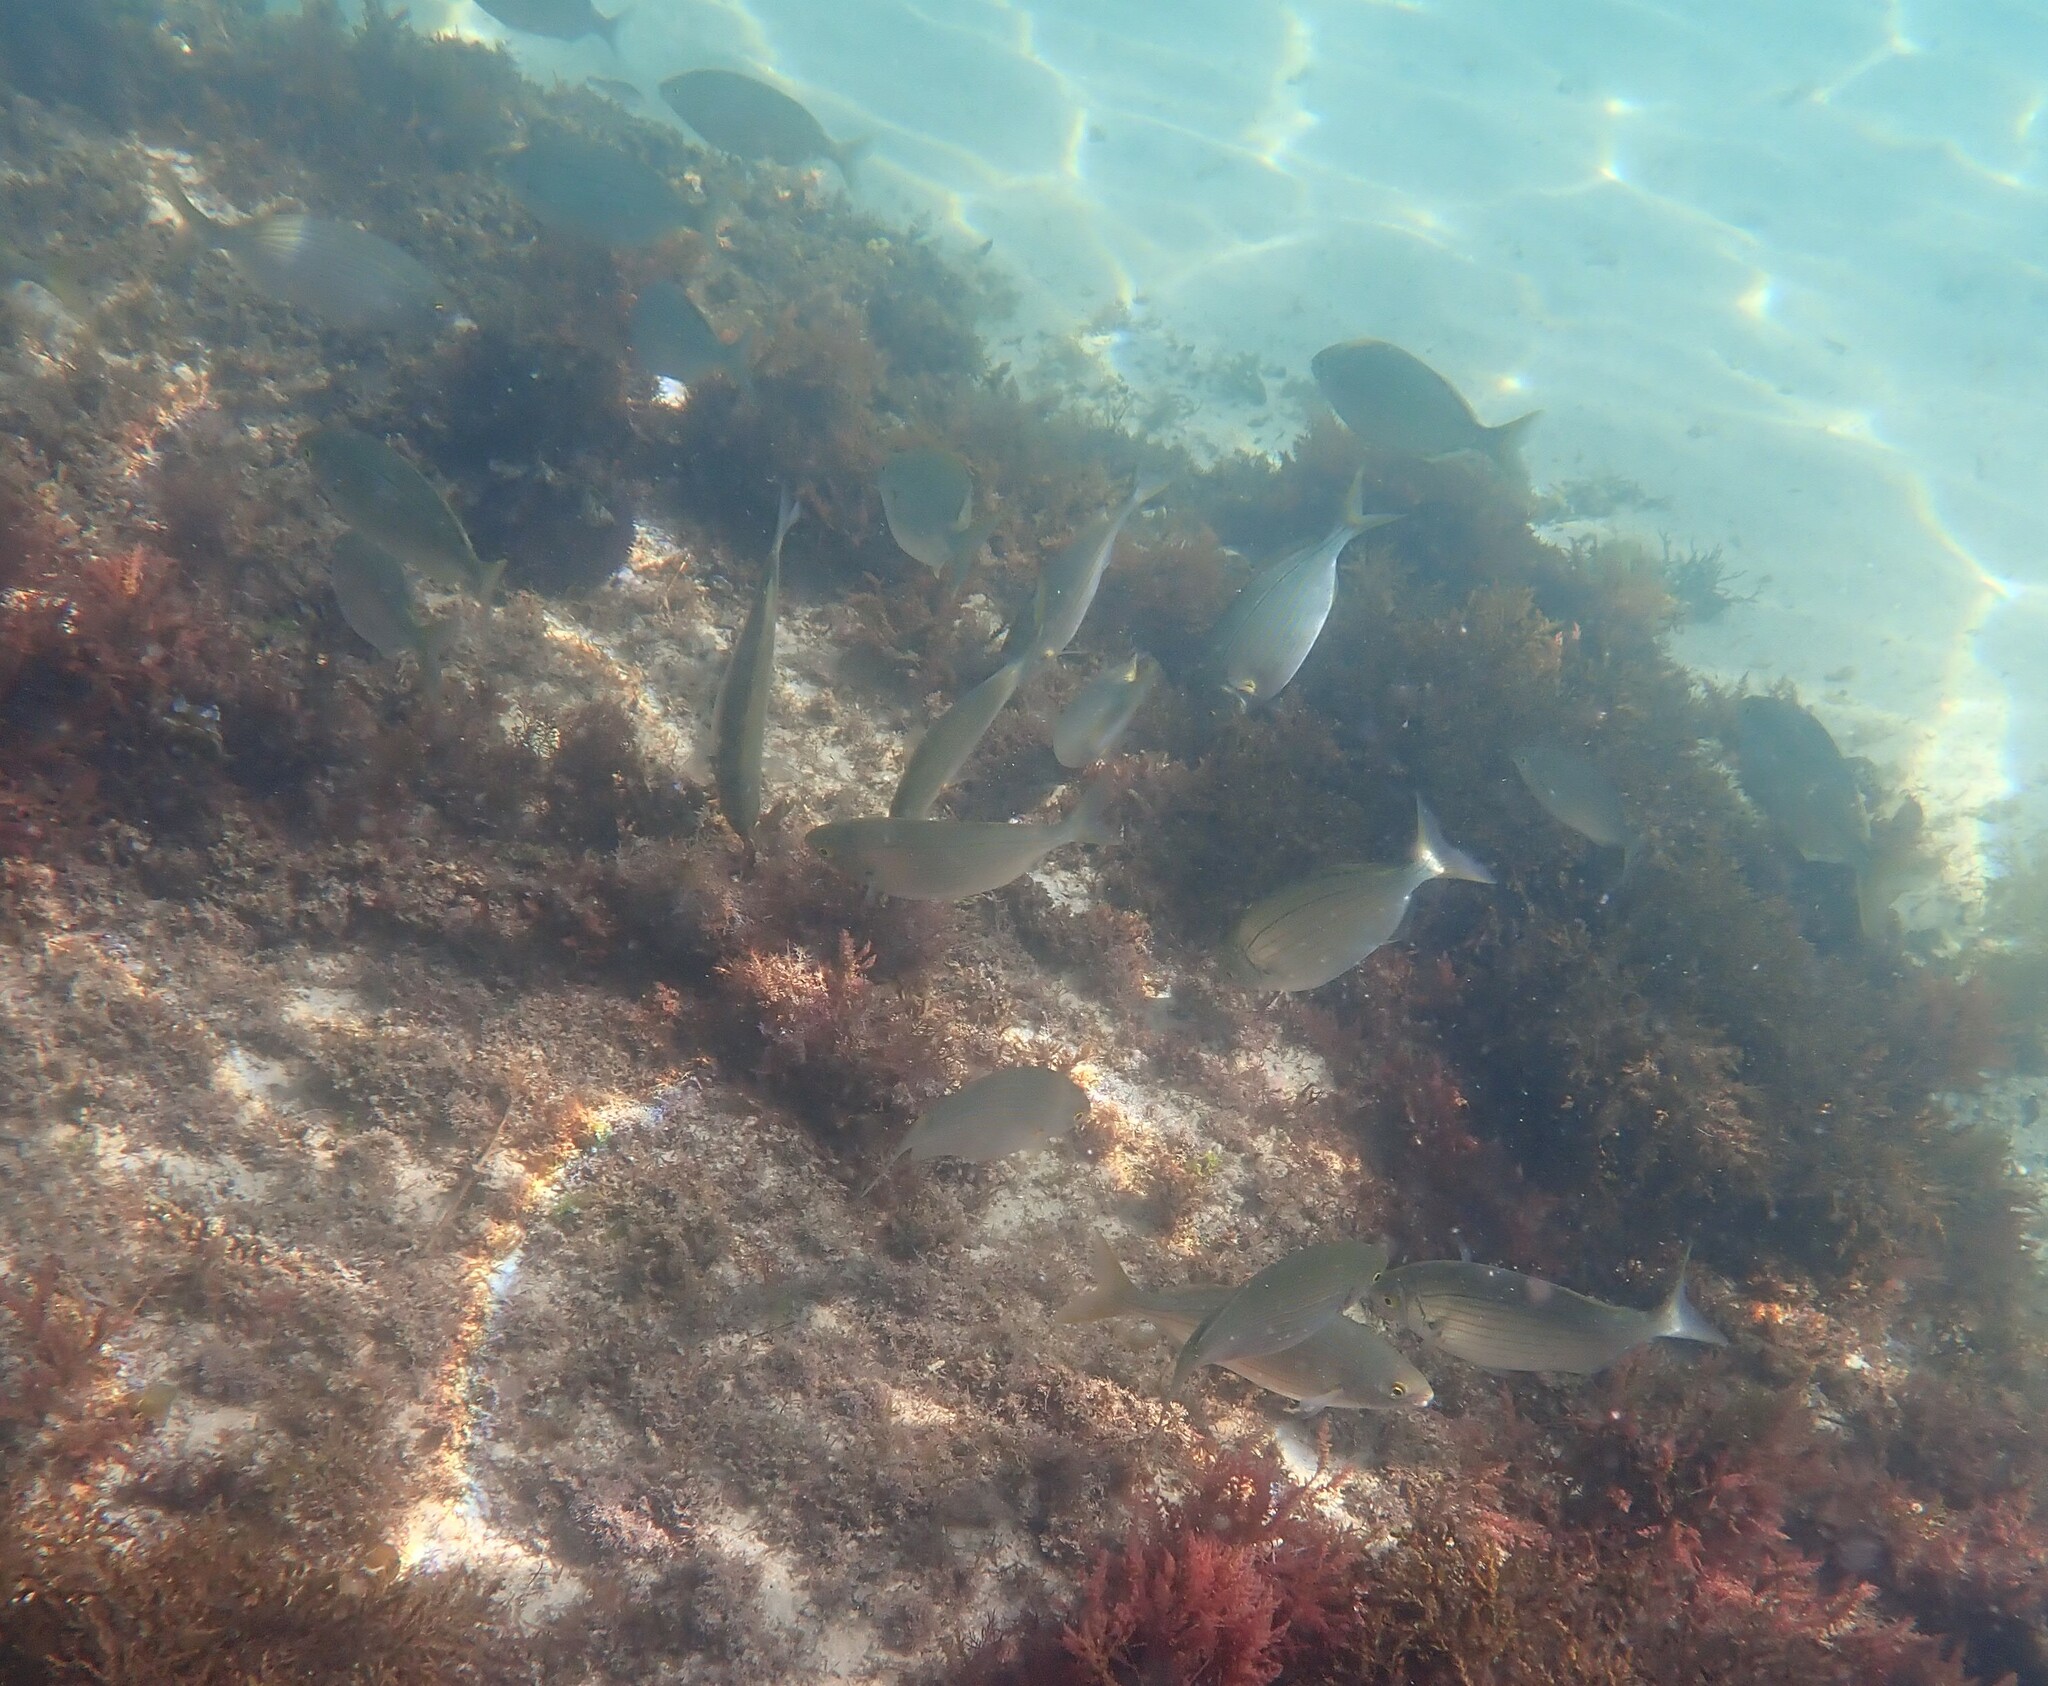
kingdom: Animalia
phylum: Chordata
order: Perciformes
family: Sparidae
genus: Sarpa
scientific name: Sarpa salpa
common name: Salema
